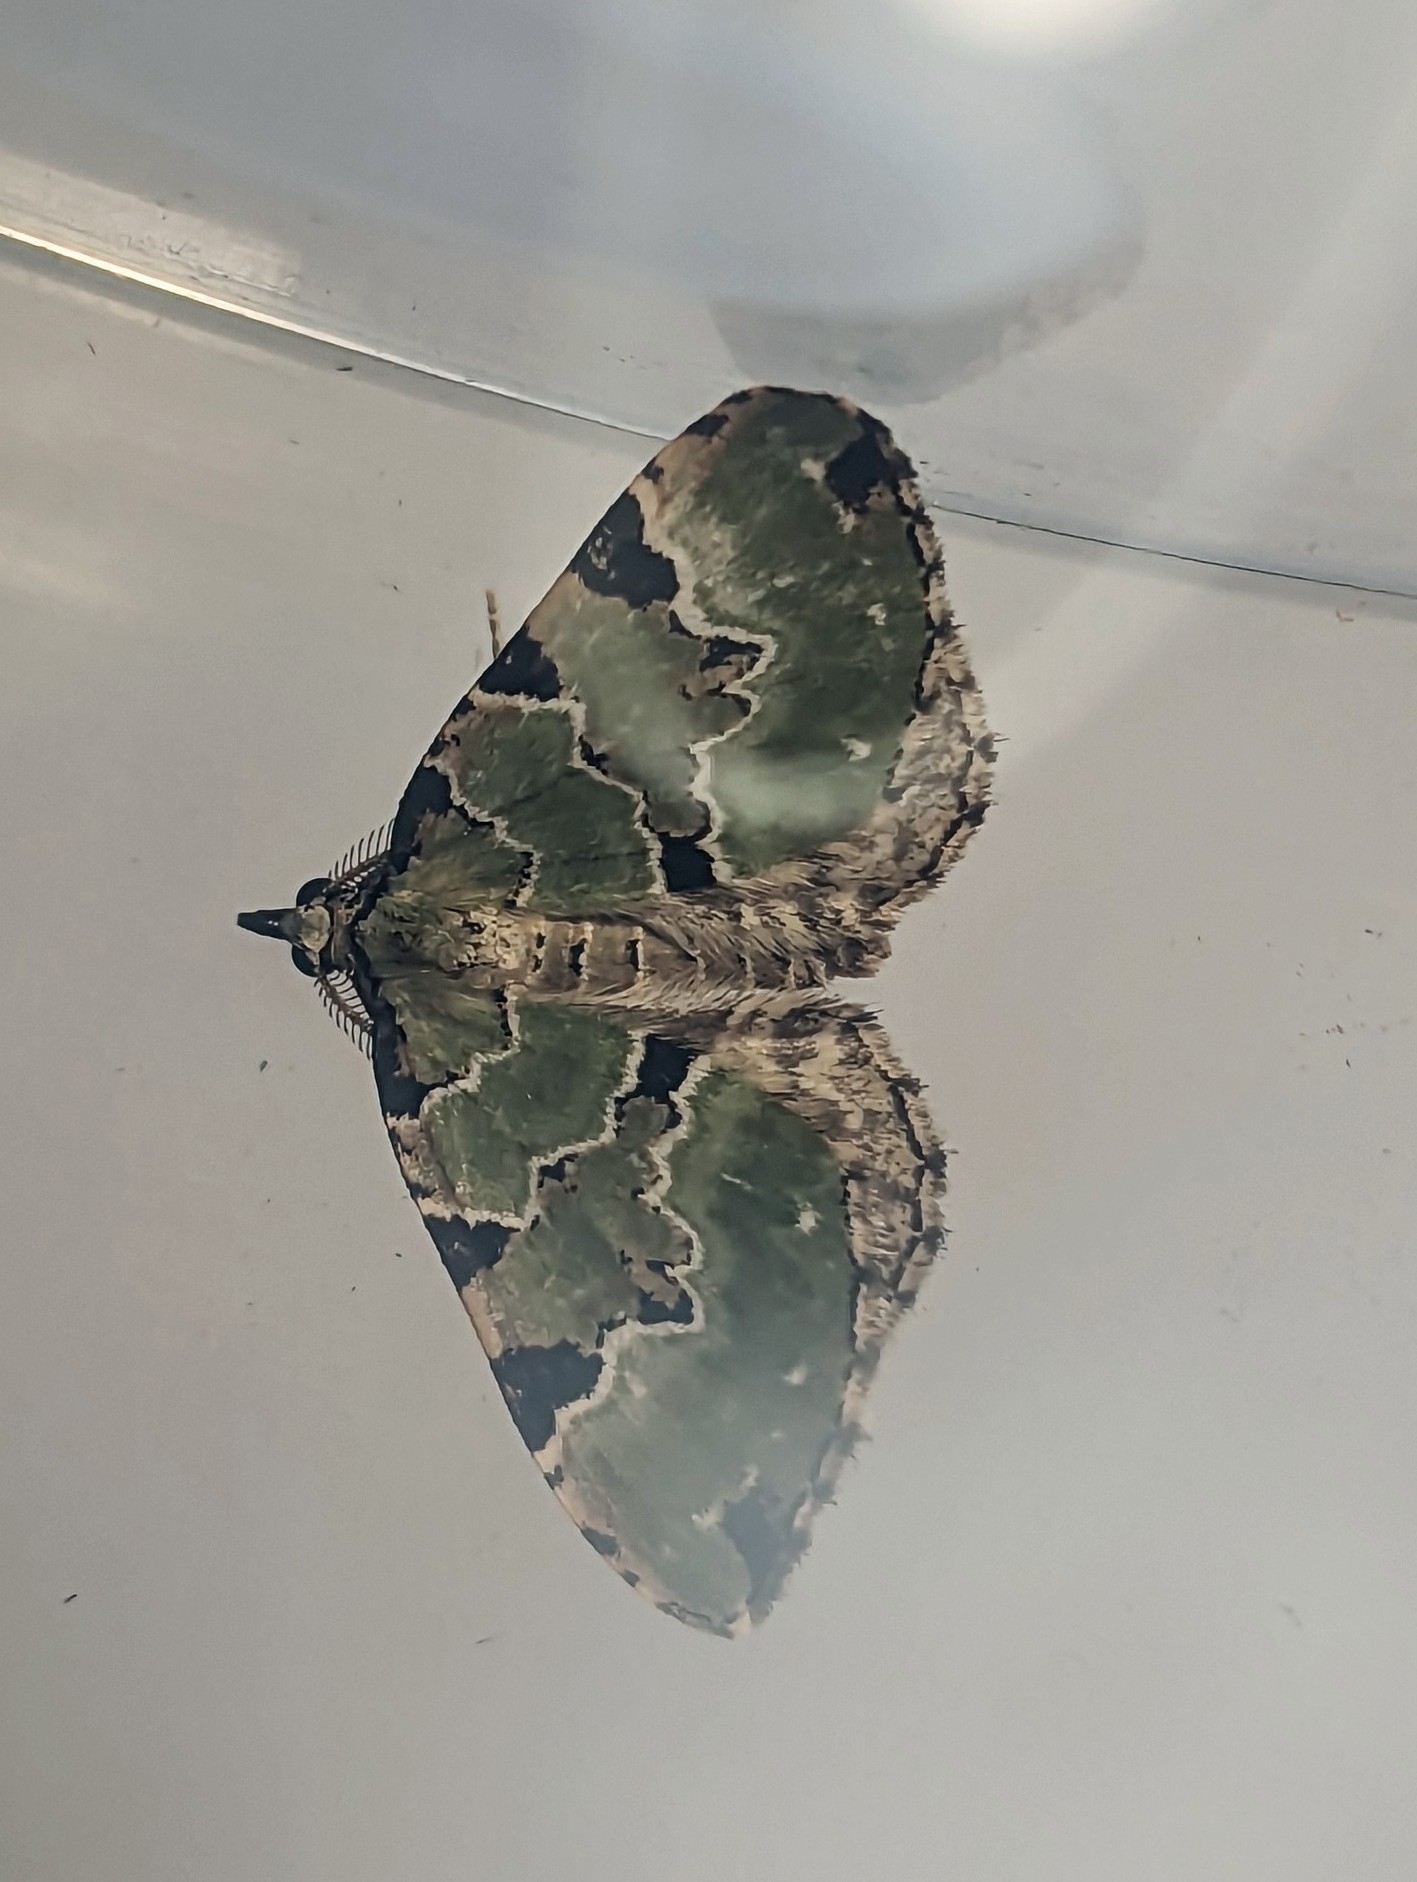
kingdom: Animalia
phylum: Arthropoda
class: Insecta
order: Lepidoptera
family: Geometridae
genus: Colostygia
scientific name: Colostygia pectinataria
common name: Green carpet
